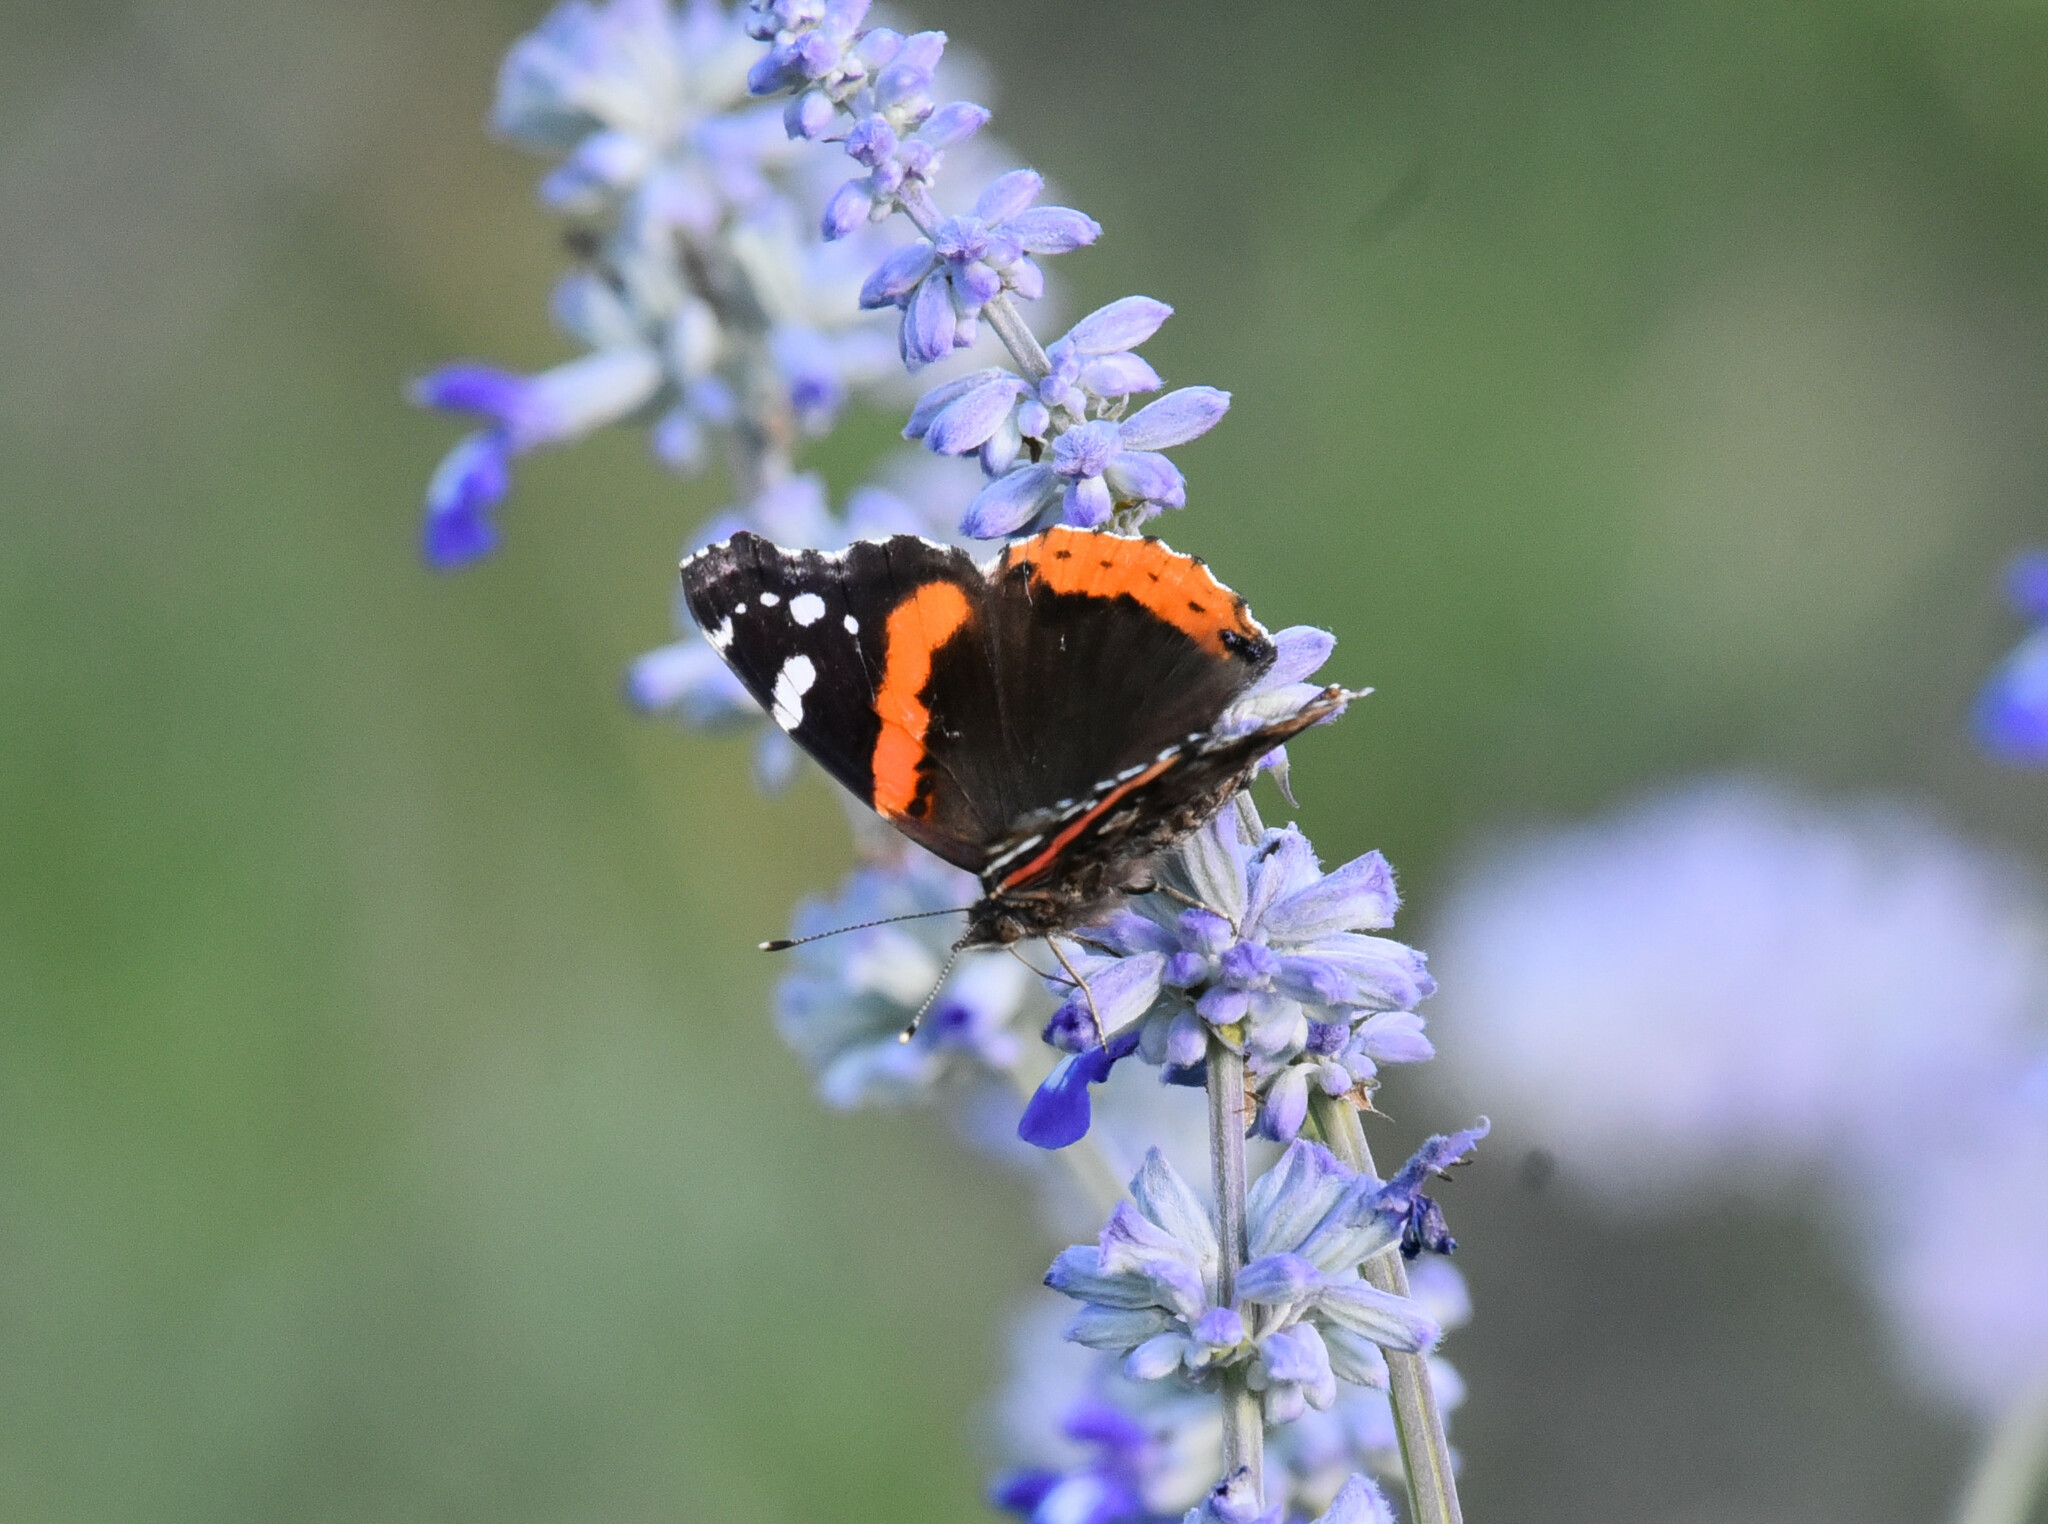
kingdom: Animalia
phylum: Arthropoda
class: Insecta
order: Lepidoptera
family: Nymphalidae
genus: Vanessa
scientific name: Vanessa atalanta
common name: Red admiral
